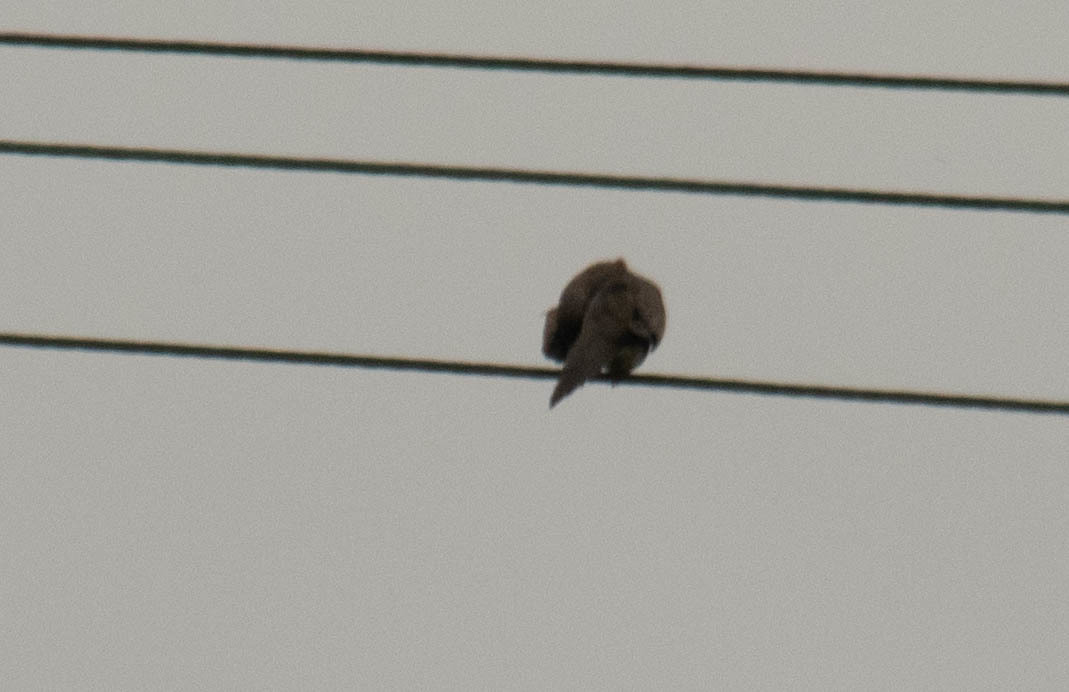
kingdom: Animalia
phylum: Chordata
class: Aves
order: Columbiformes
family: Columbidae
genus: Zenaida
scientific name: Zenaida macroura
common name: Mourning dove
